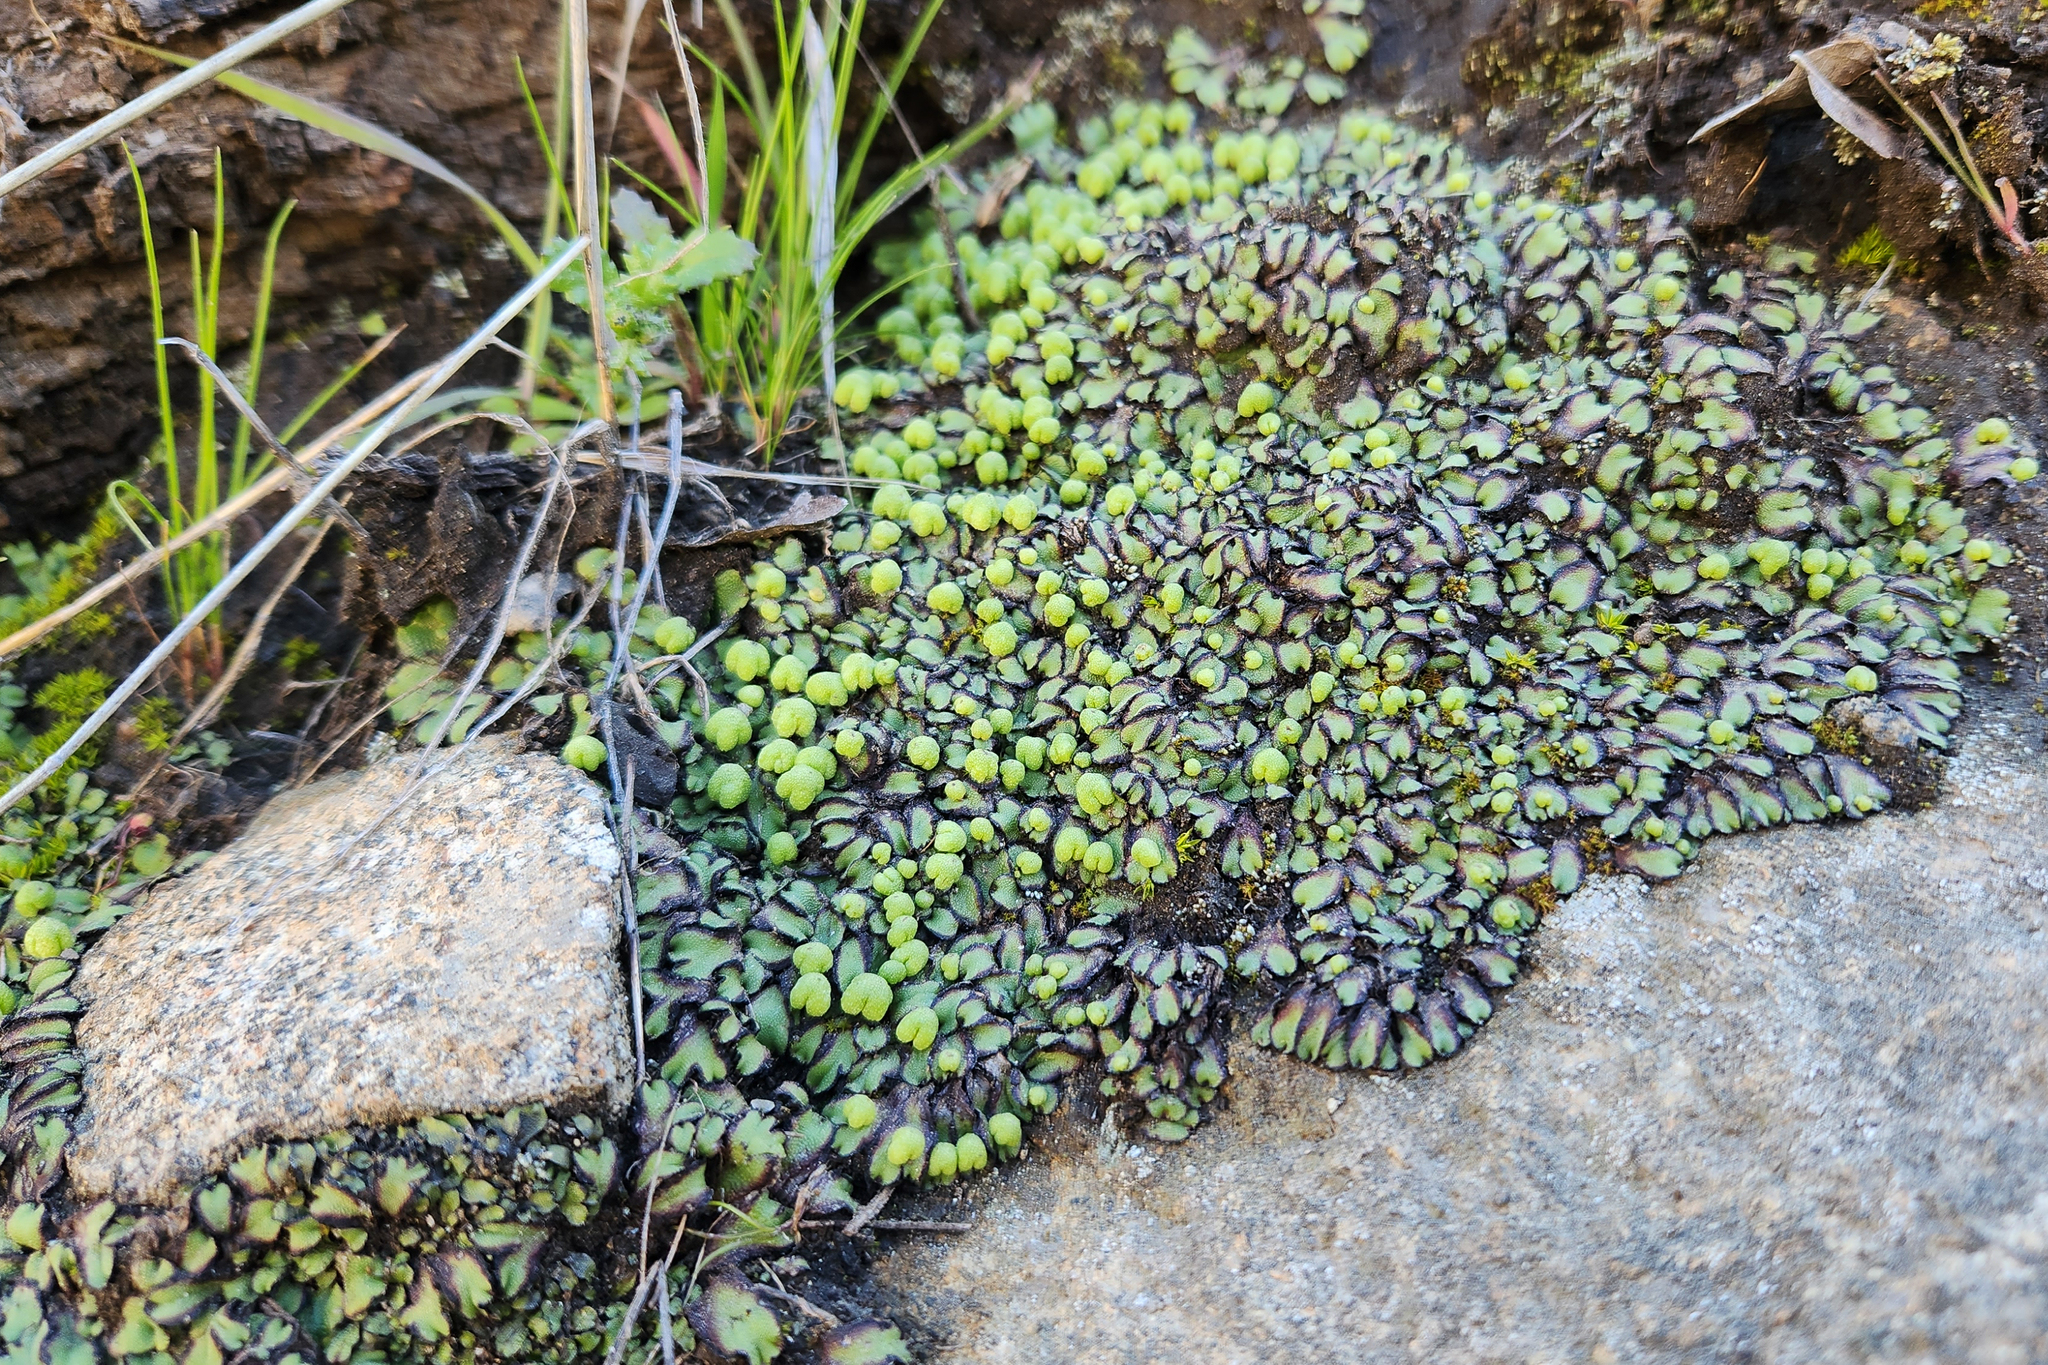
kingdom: Plantae
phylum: Marchantiophyta
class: Marchantiopsida
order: Marchantiales
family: Aytoniaceae
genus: Asterella
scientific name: Asterella californica
